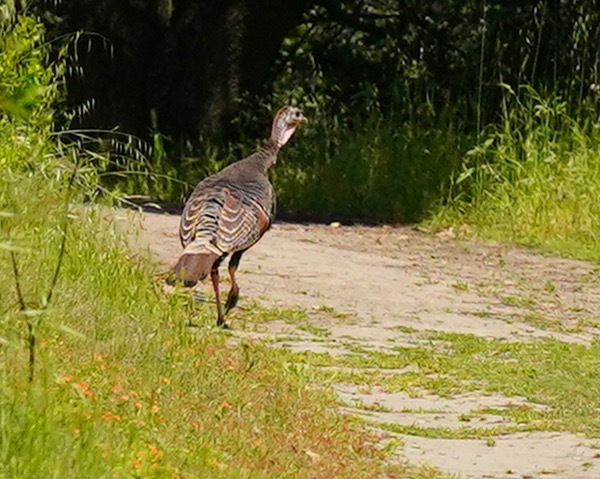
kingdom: Animalia
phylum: Chordata
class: Aves
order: Galliformes
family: Phasianidae
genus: Meleagris
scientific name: Meleagris gallopavo
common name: Wild turkey
